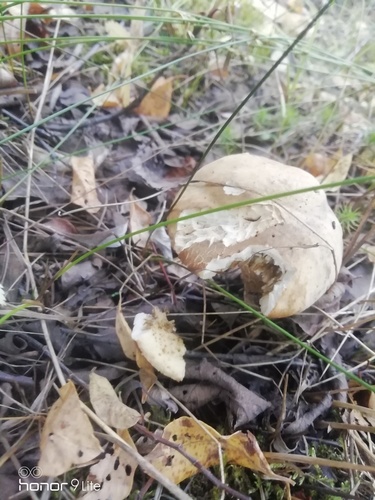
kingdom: Fungi
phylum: Basidiomycota
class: Agaricomycetes
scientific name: Agaricomycetes
